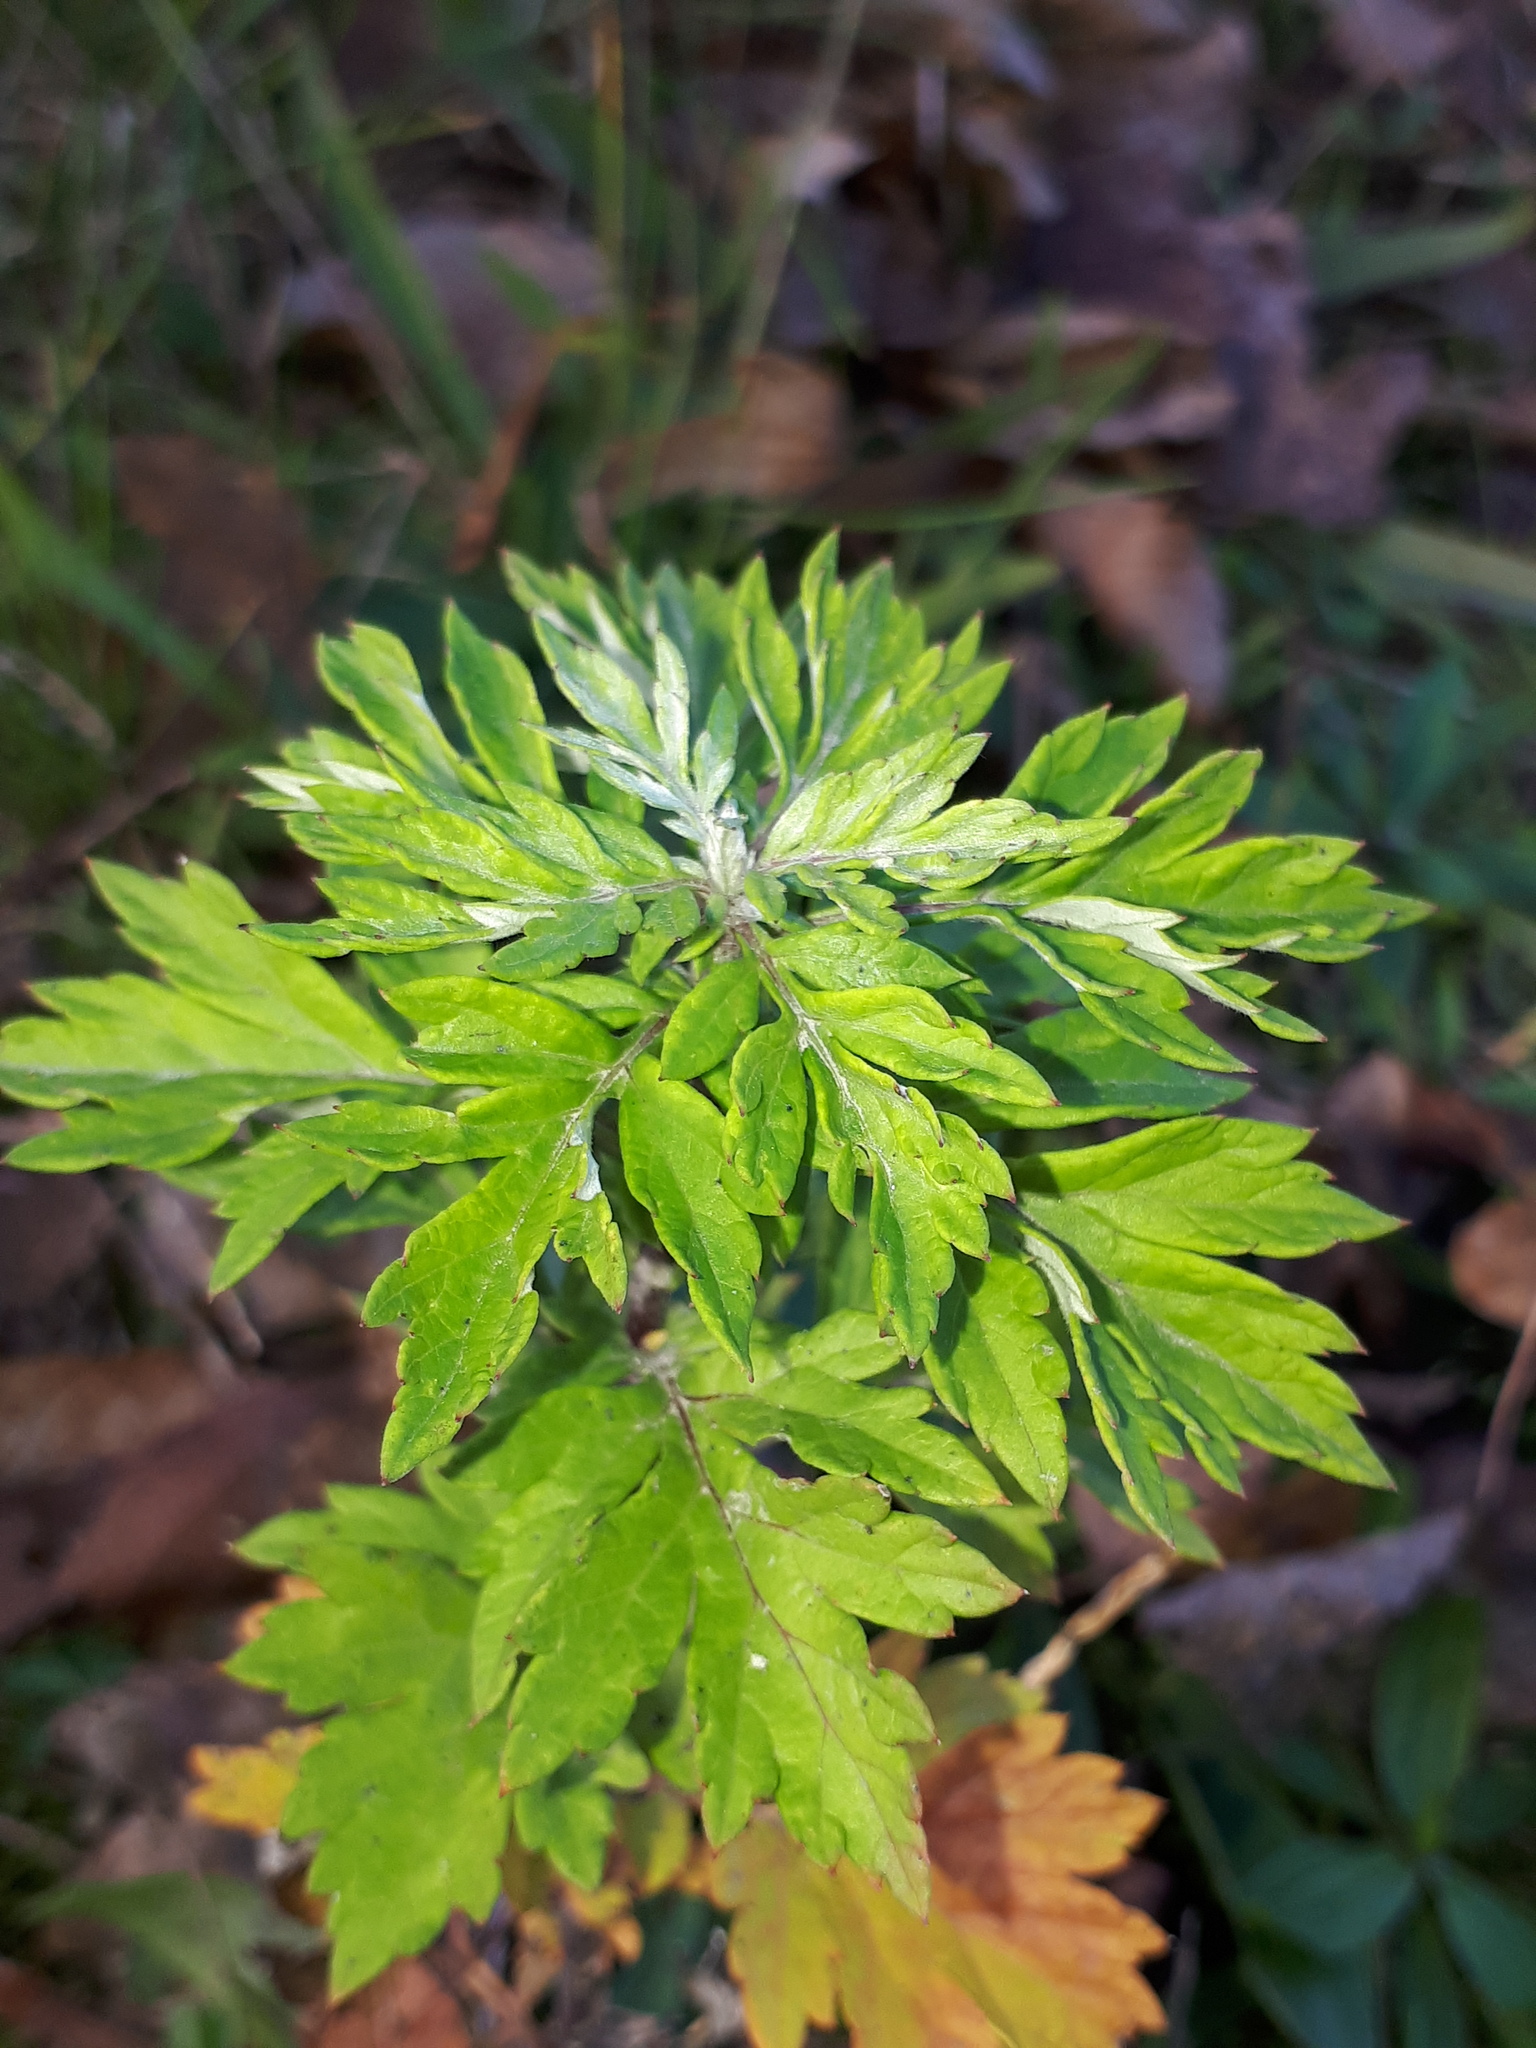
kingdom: Plantae
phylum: Tracheophyta
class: Magnoliopsida
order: Asterales
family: Asteraceae
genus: Artemisia
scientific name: Artemisia vulgaris
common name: Mugwort
